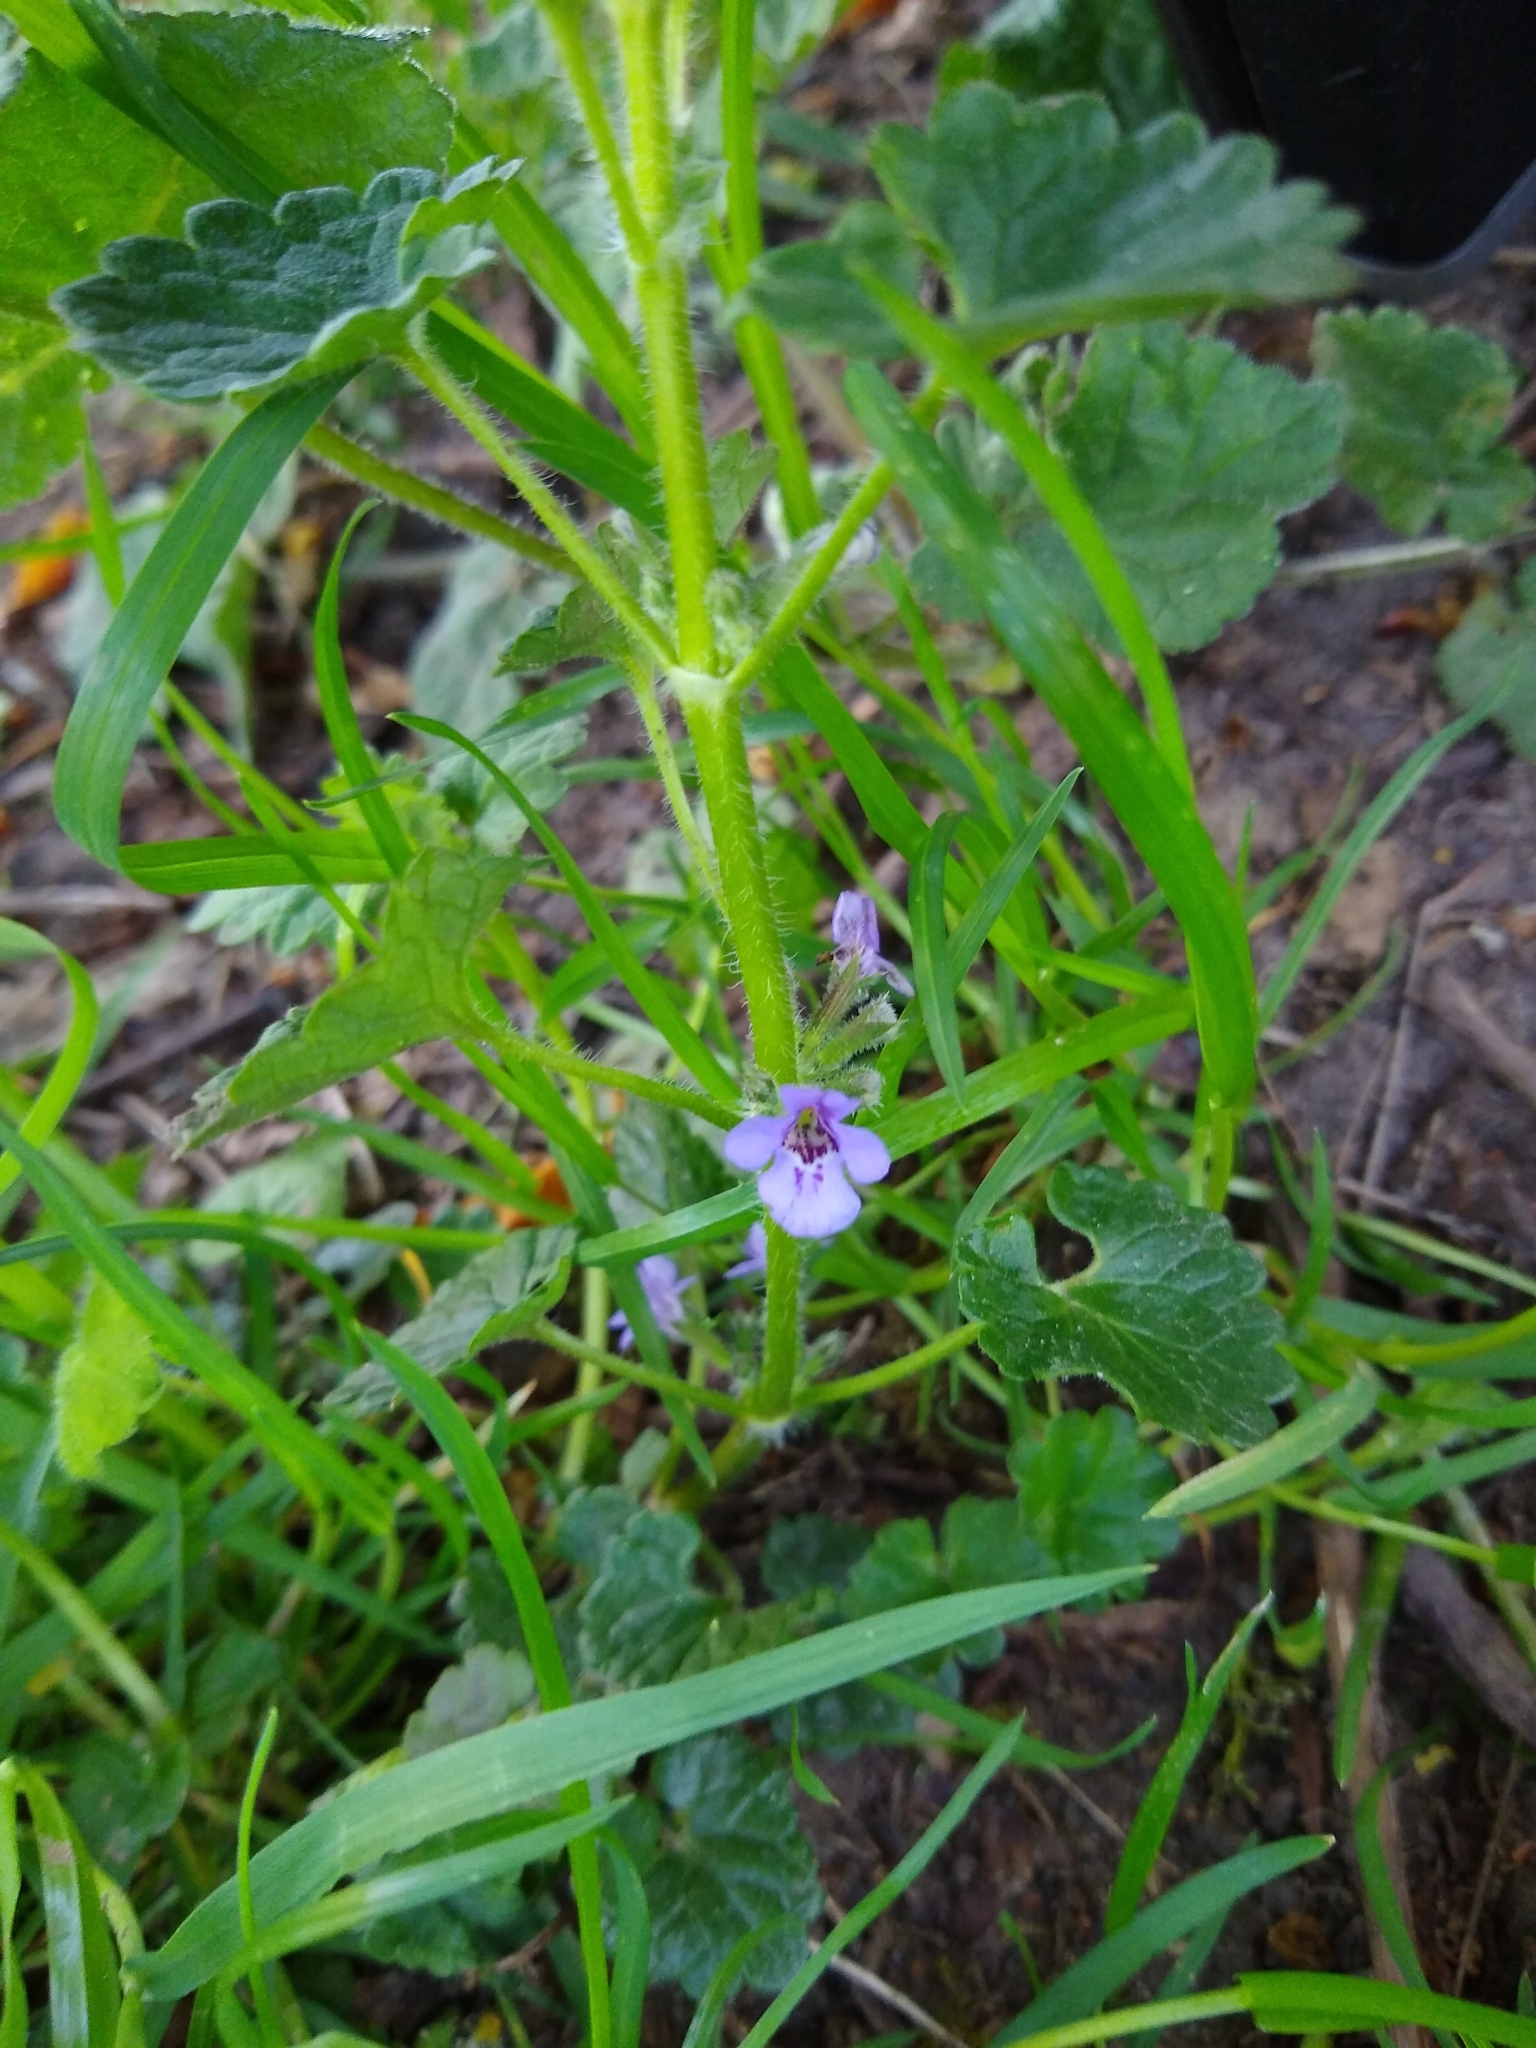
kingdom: Plantae
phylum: Tracheophyta
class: Magnoliopsida
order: Lamiales
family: Lamiaceae
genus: Glechoma
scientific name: Glechoma hederacea
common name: Ground ivy
